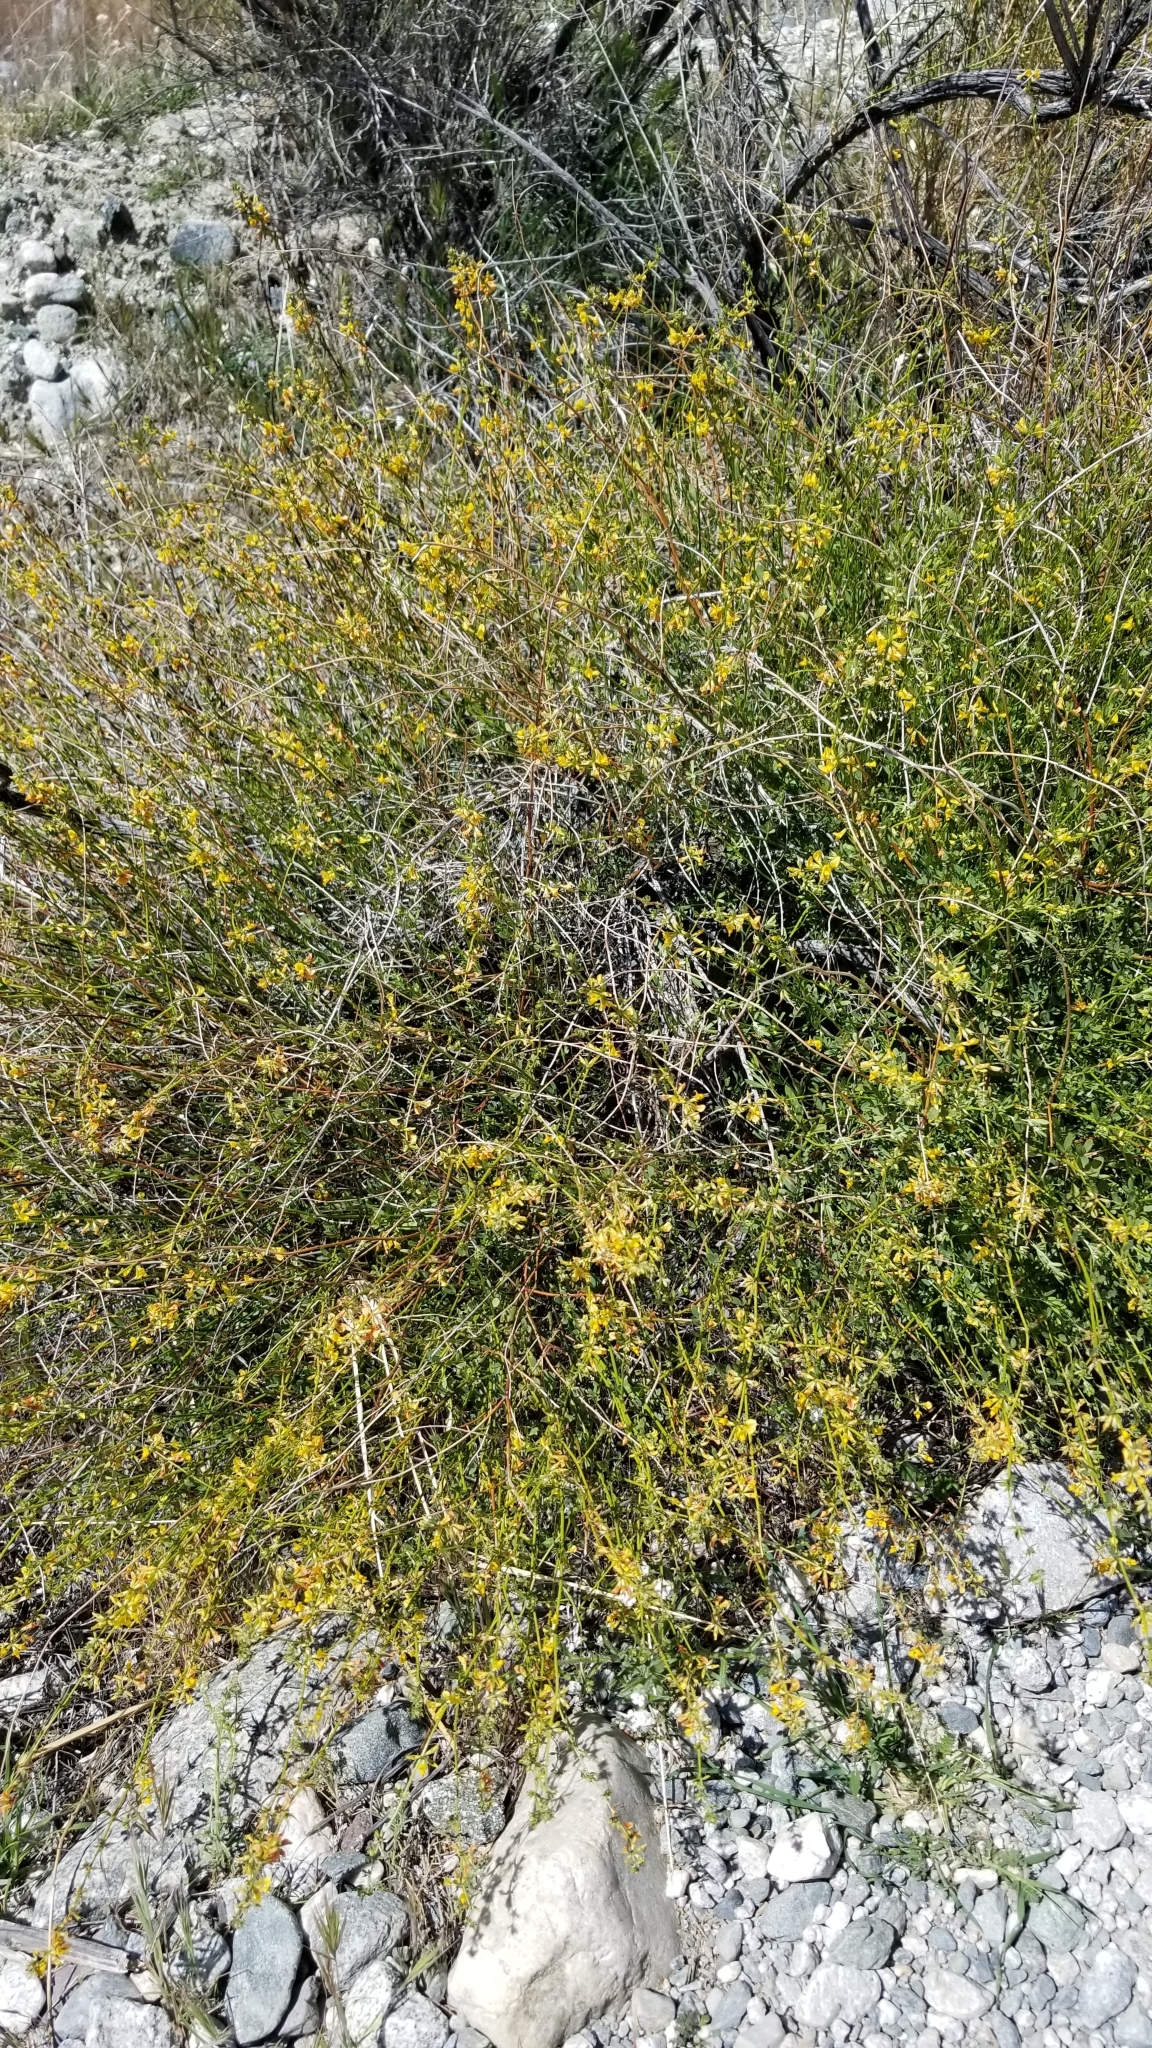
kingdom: Plantae
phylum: Tracheophyta
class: Magnoliopsida
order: Fabales
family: Fabaceae
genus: Acmispon
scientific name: Acmispon glaber
